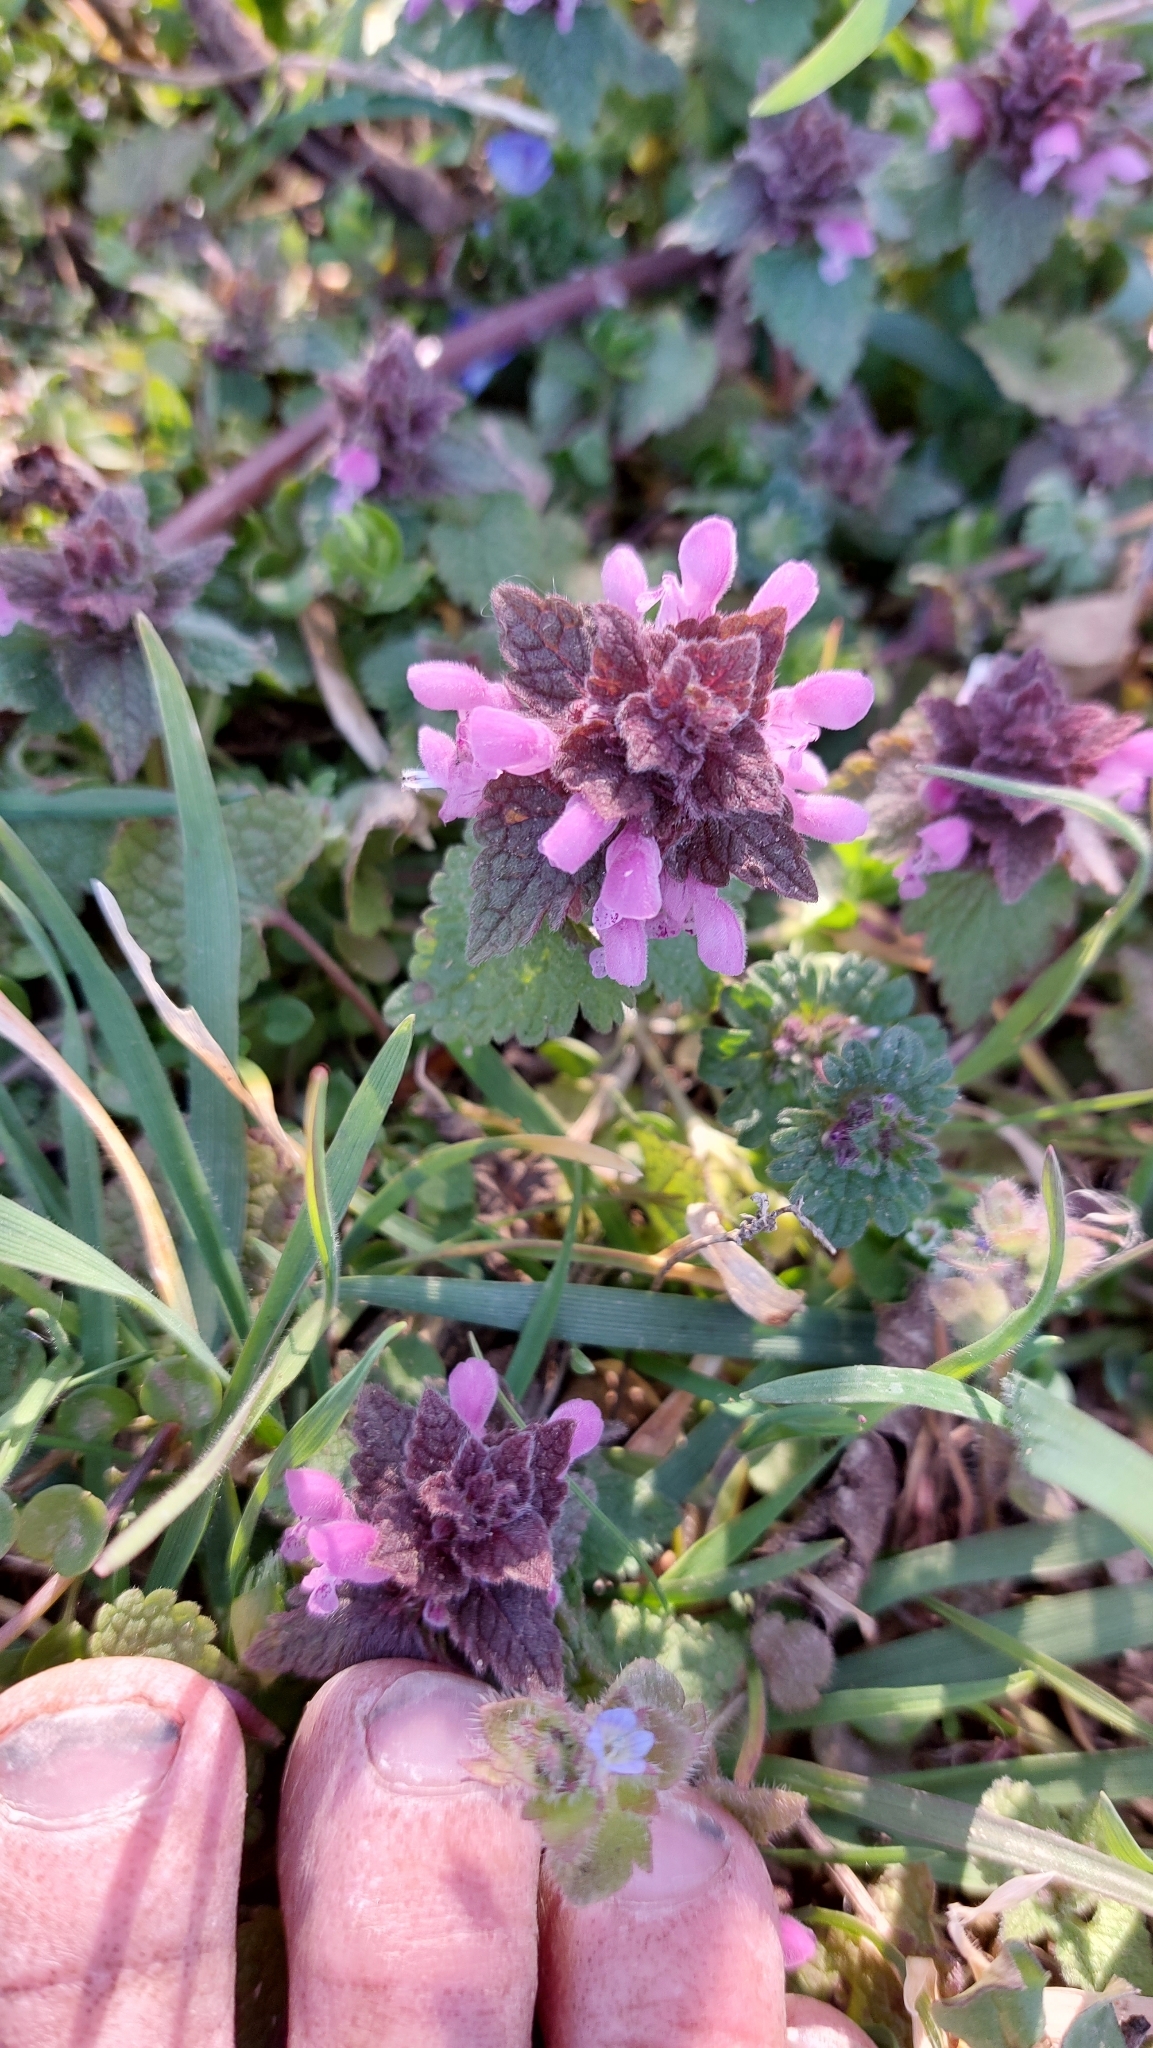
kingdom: Plantae
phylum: Tracheophyta
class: Magnoliopsida
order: Lamiales
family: Lamiaceae
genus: Lamium
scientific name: Lamium purpureum
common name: Red dead-nettle
